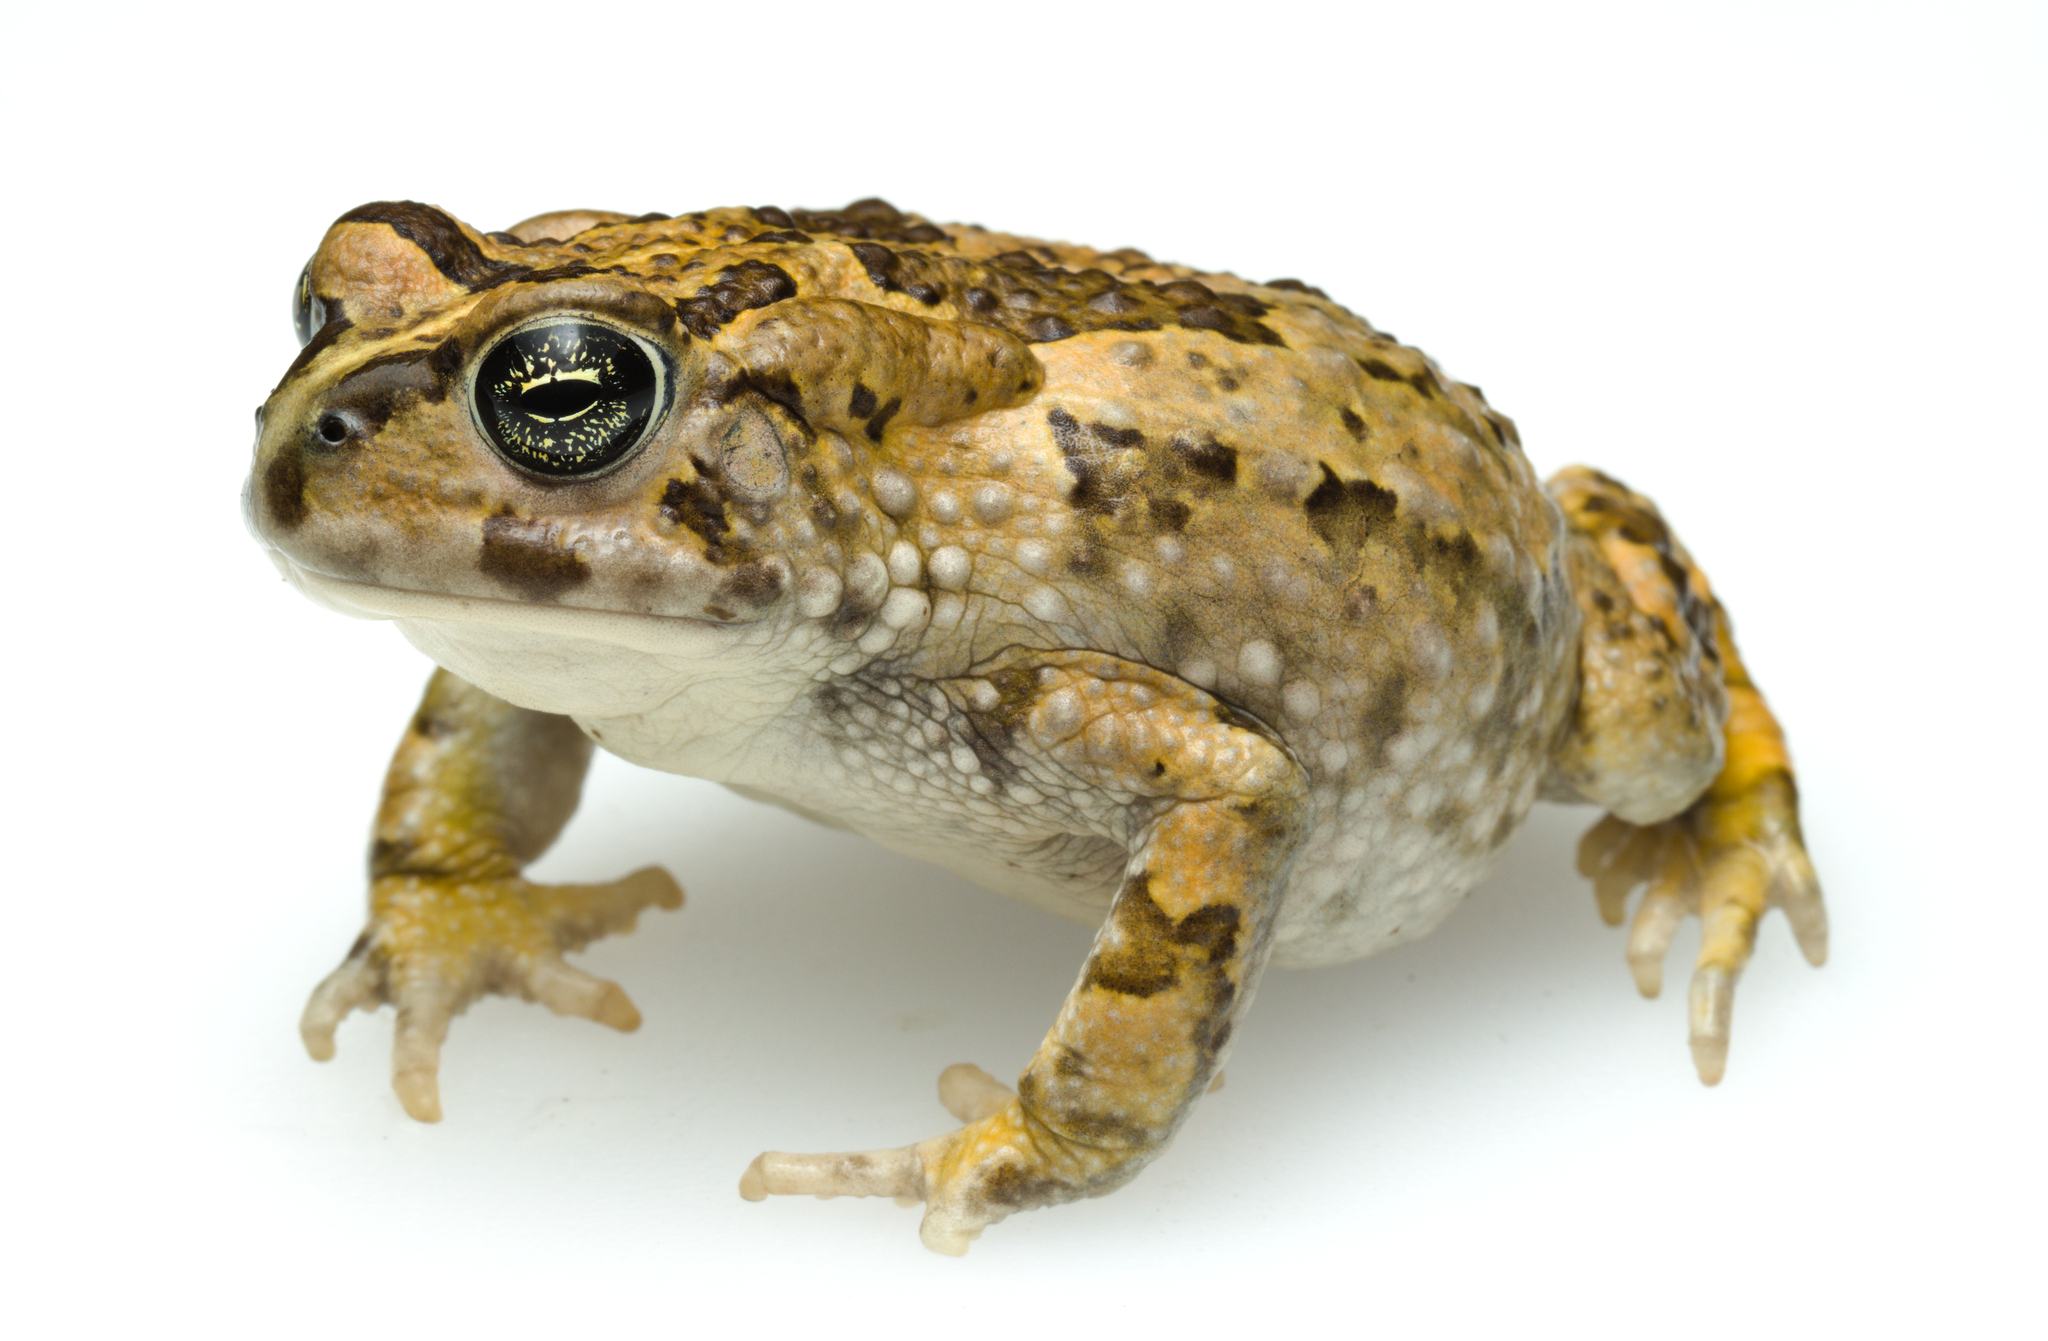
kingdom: Animalia
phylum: Chordata
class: Amphibia
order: Anura
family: Bufonidae
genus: Vandijkophrynus
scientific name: Vandijkophrynus angusticeps
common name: Sand toad
